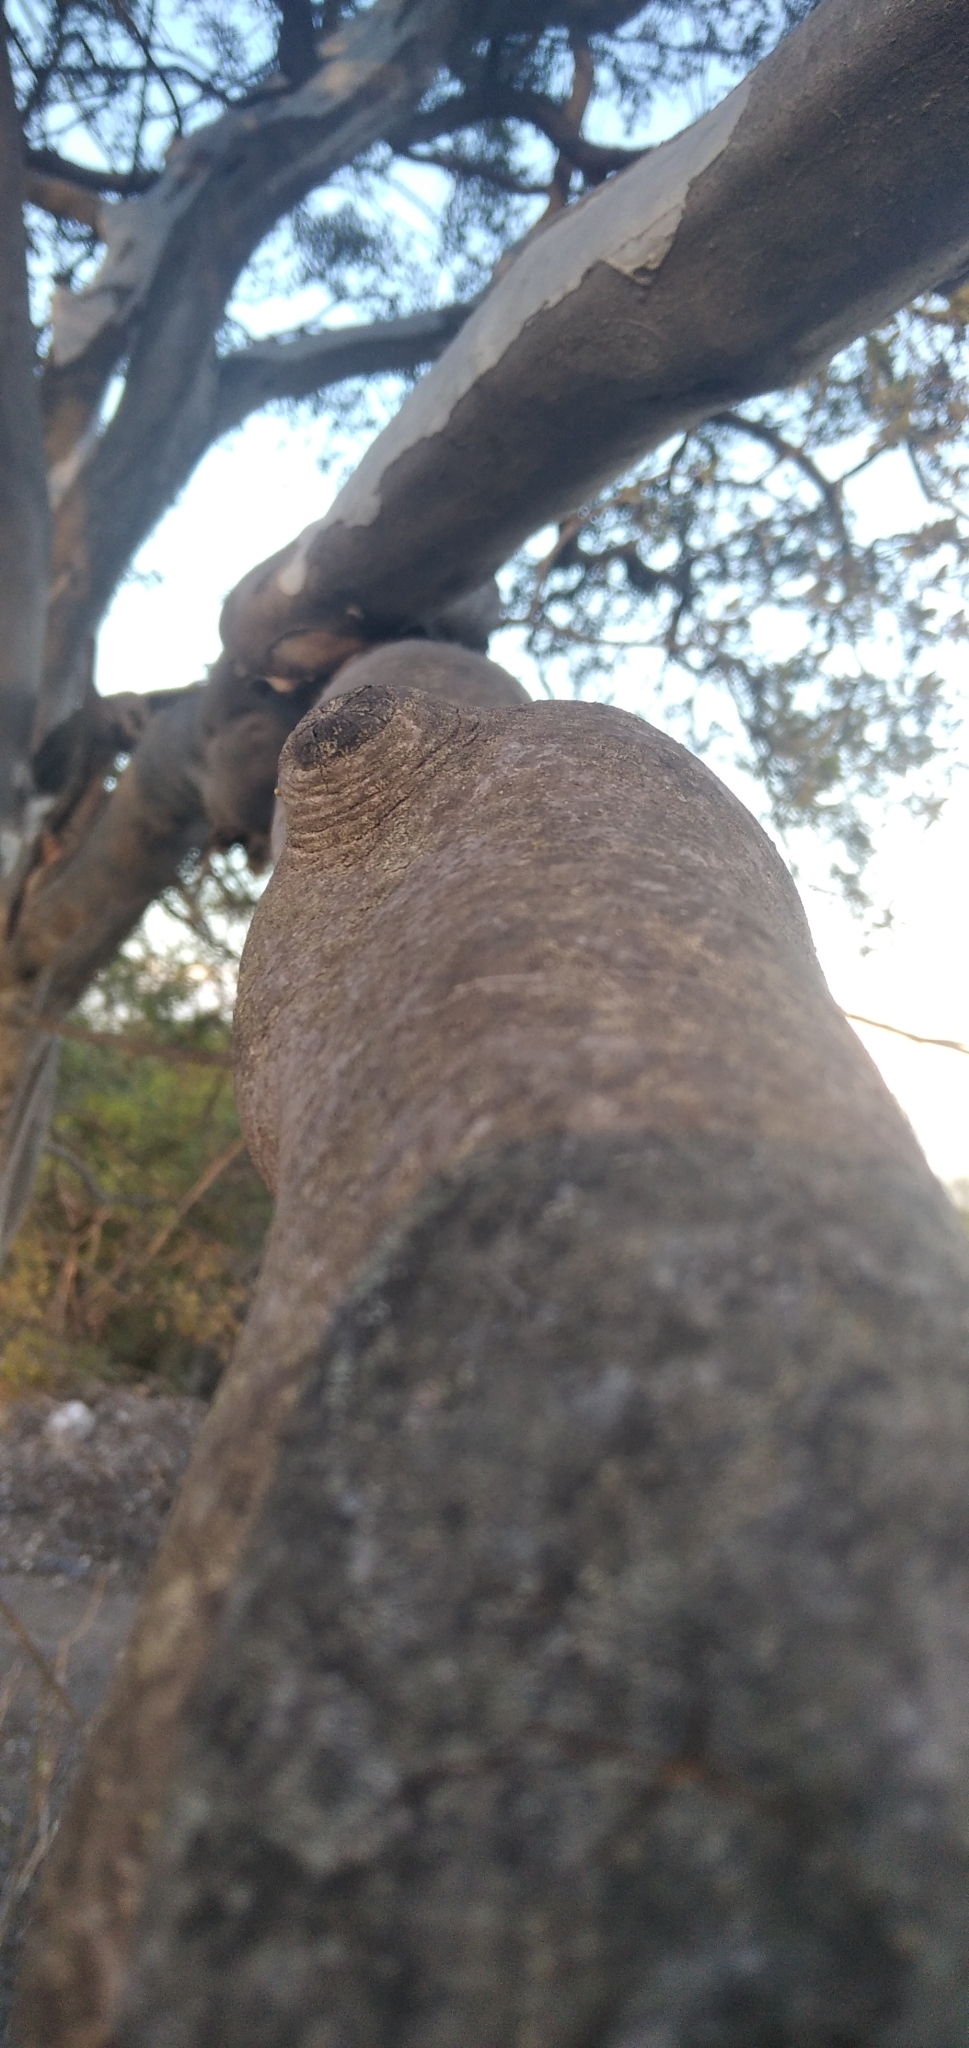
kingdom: Plantae
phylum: Tracheophyta
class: Magnoliopsida
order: Ericales
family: Ebenaceae
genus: Diospyros
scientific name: Diospyros texana
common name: Texas persimmon
